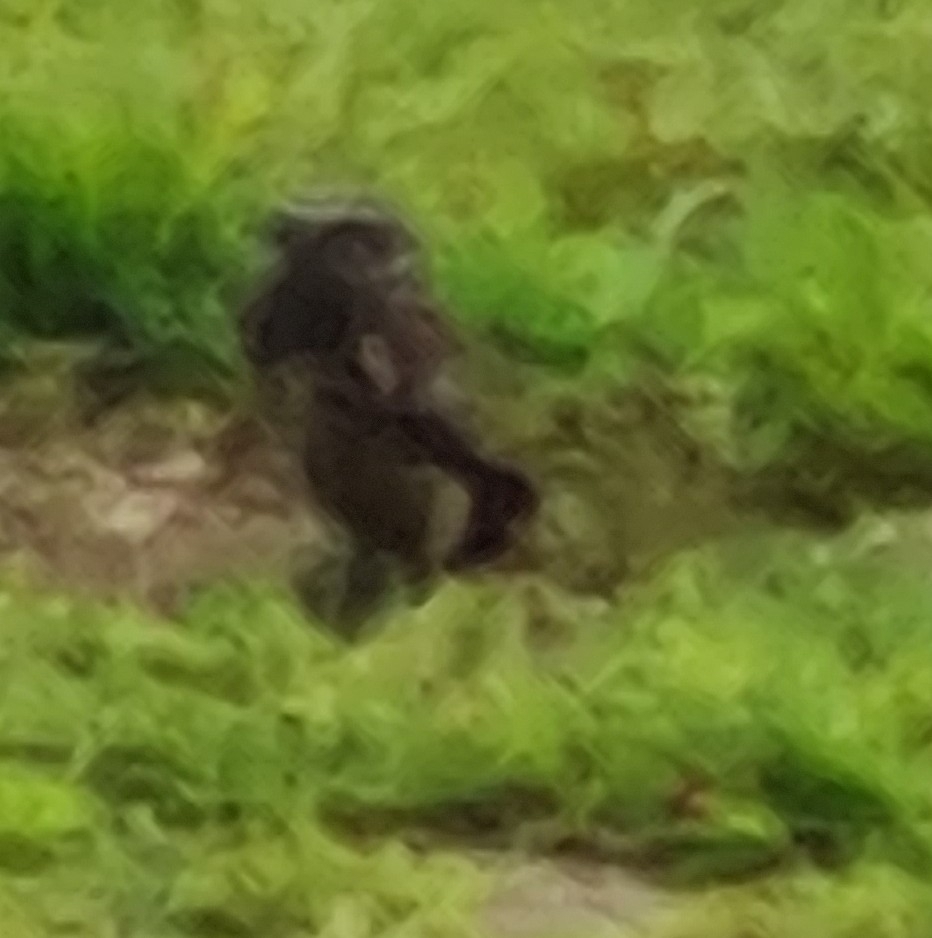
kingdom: Animalia
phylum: Chordata
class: Aves
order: Strigiformes
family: Strigidae
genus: Athene
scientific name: Athene cunicularia
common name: Burrowing owl
